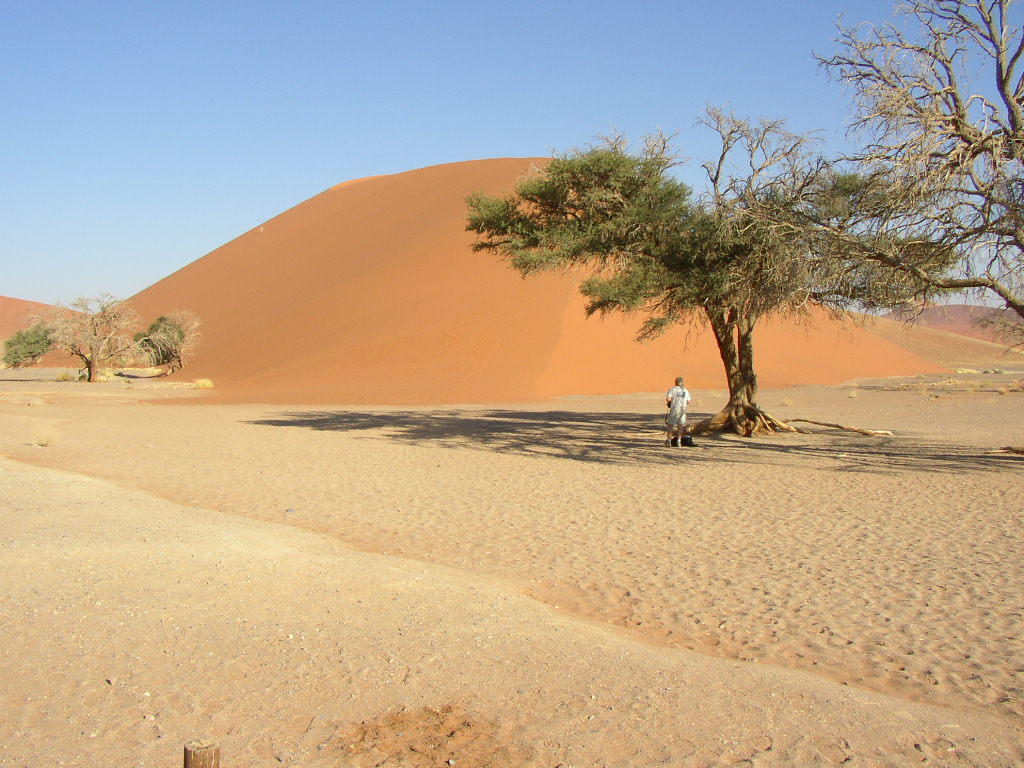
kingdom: Plantae
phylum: Tracheophyta
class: Magnoliopsida
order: Fabales
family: Fabaceae
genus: Vachellia
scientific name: Vachellia erioloba
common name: Camel thorn
